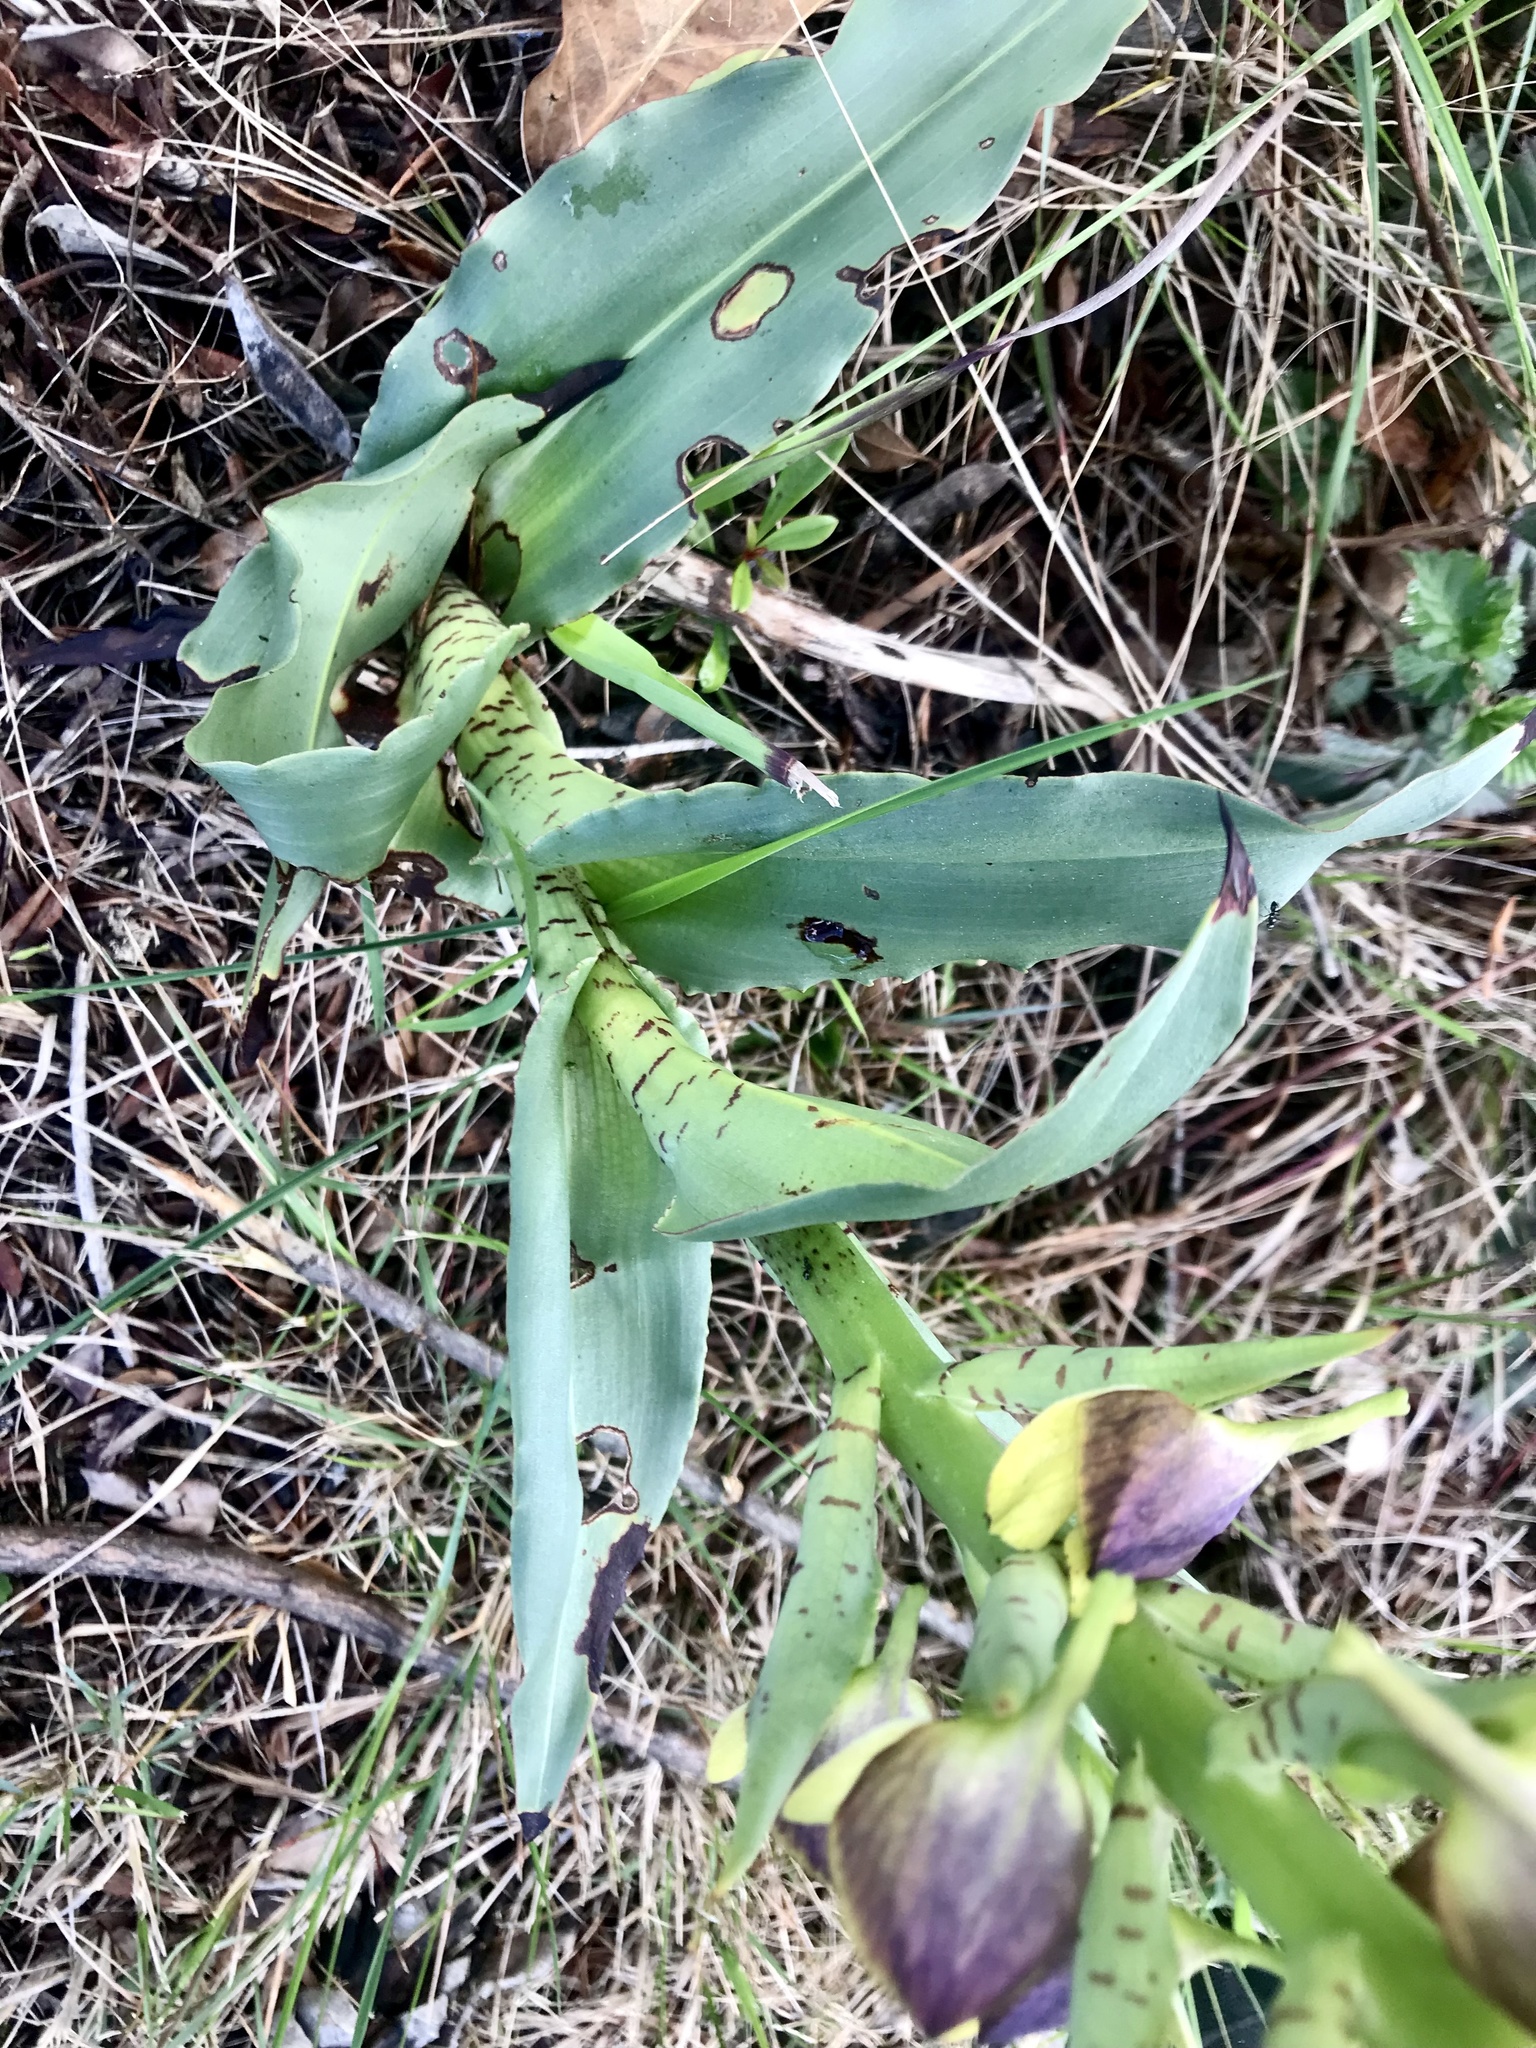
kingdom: Plantae
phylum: Tracheophyta
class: Liliopsida
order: Asparagales
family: Orchidaceae
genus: Disa
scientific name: Disa cornuta
